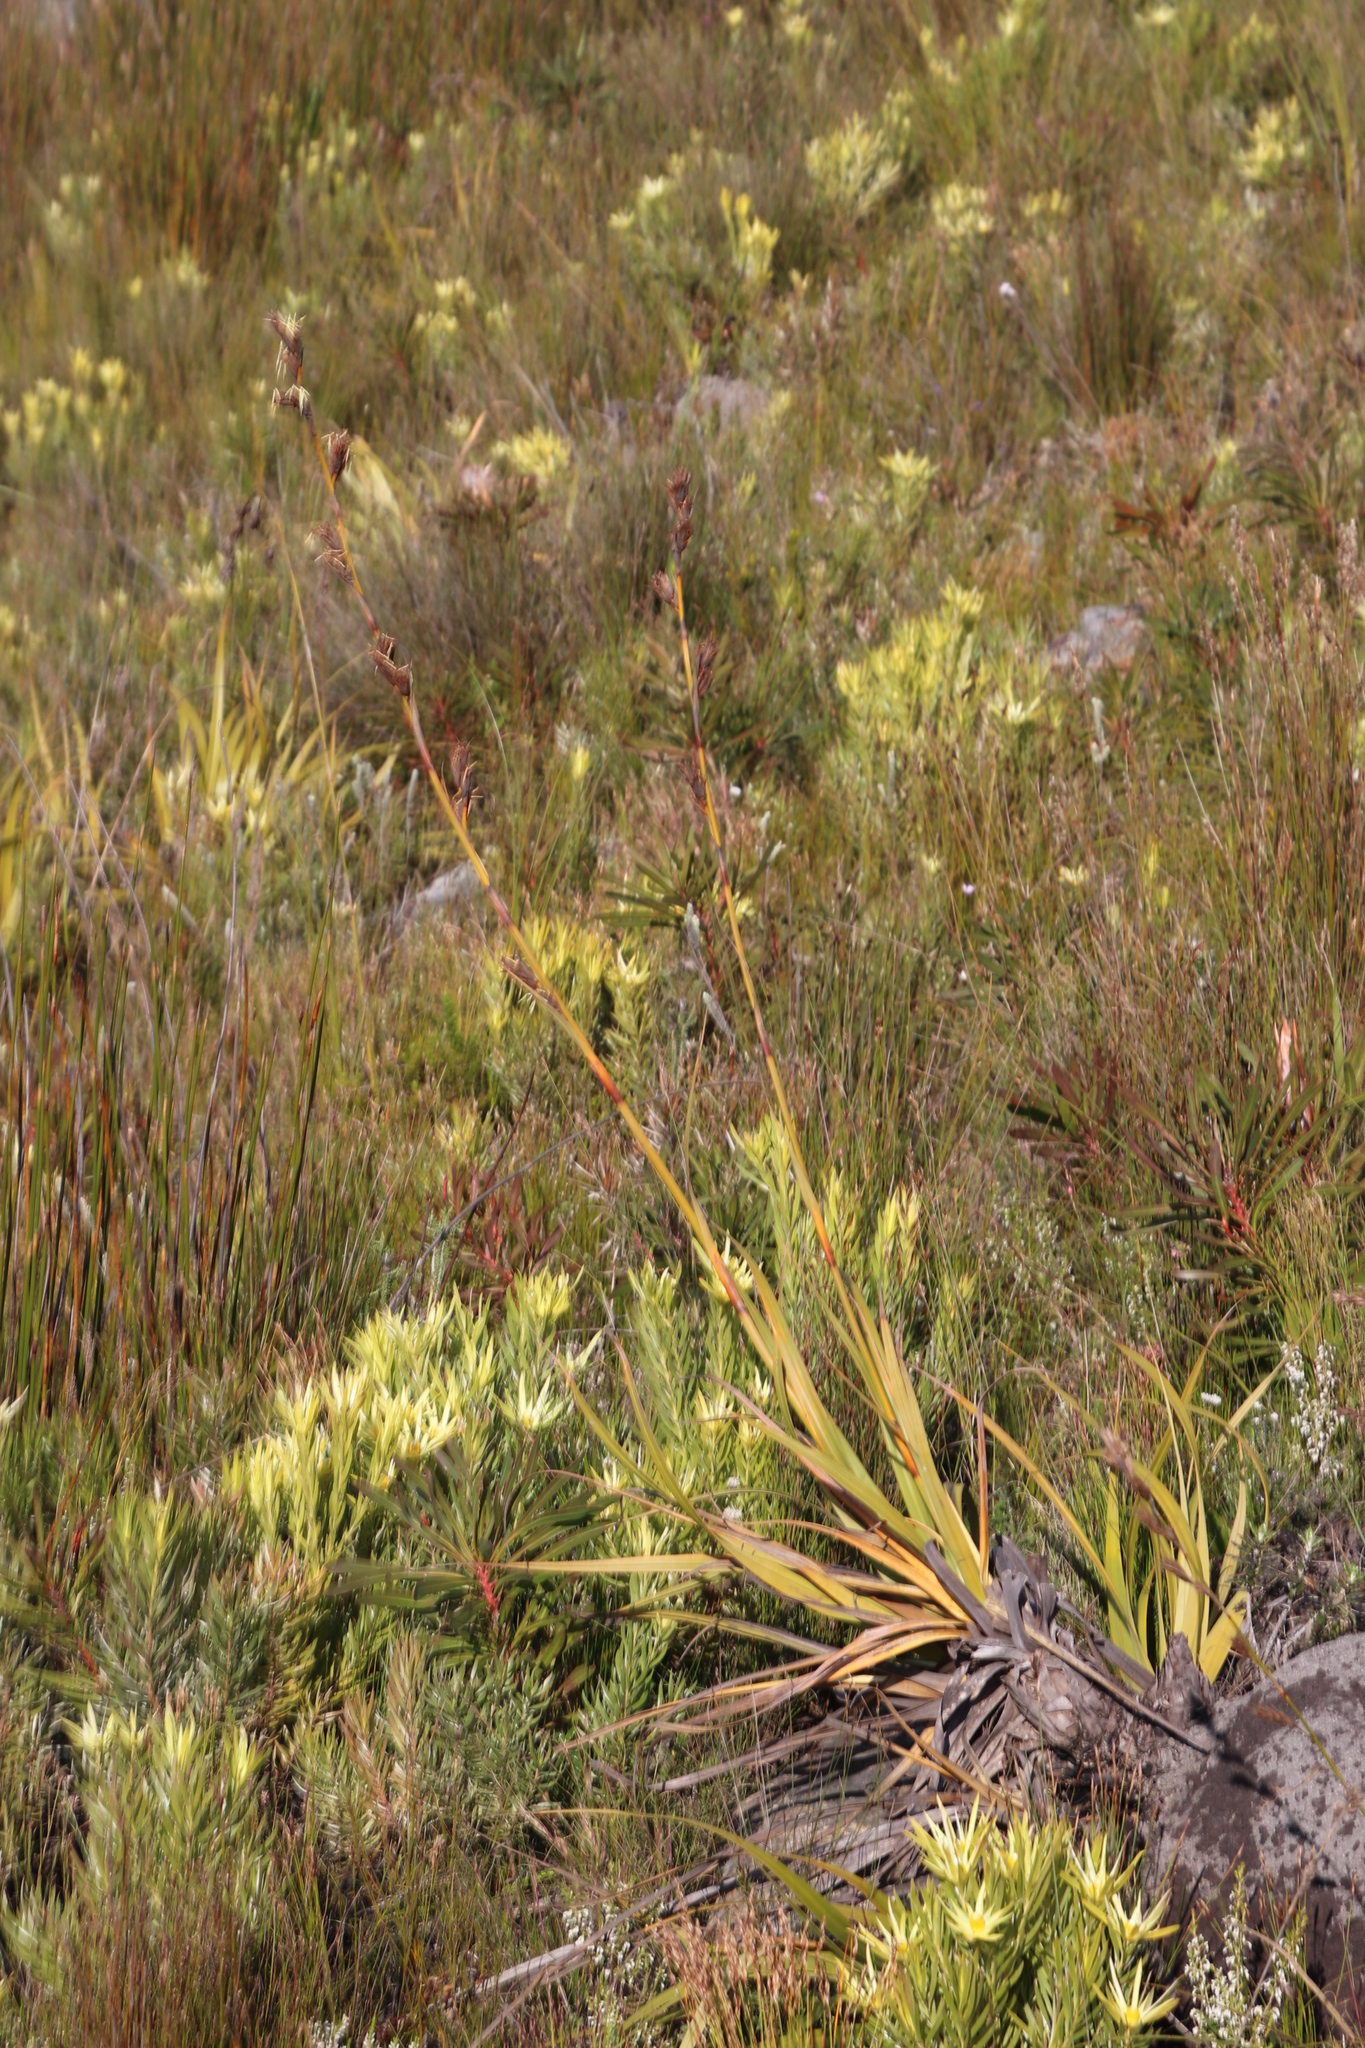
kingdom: Plantae
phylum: Tracheophyta
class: Liliopsida
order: Poales
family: Cyperaceae
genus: Tetraria
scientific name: Tetraria thermalis
